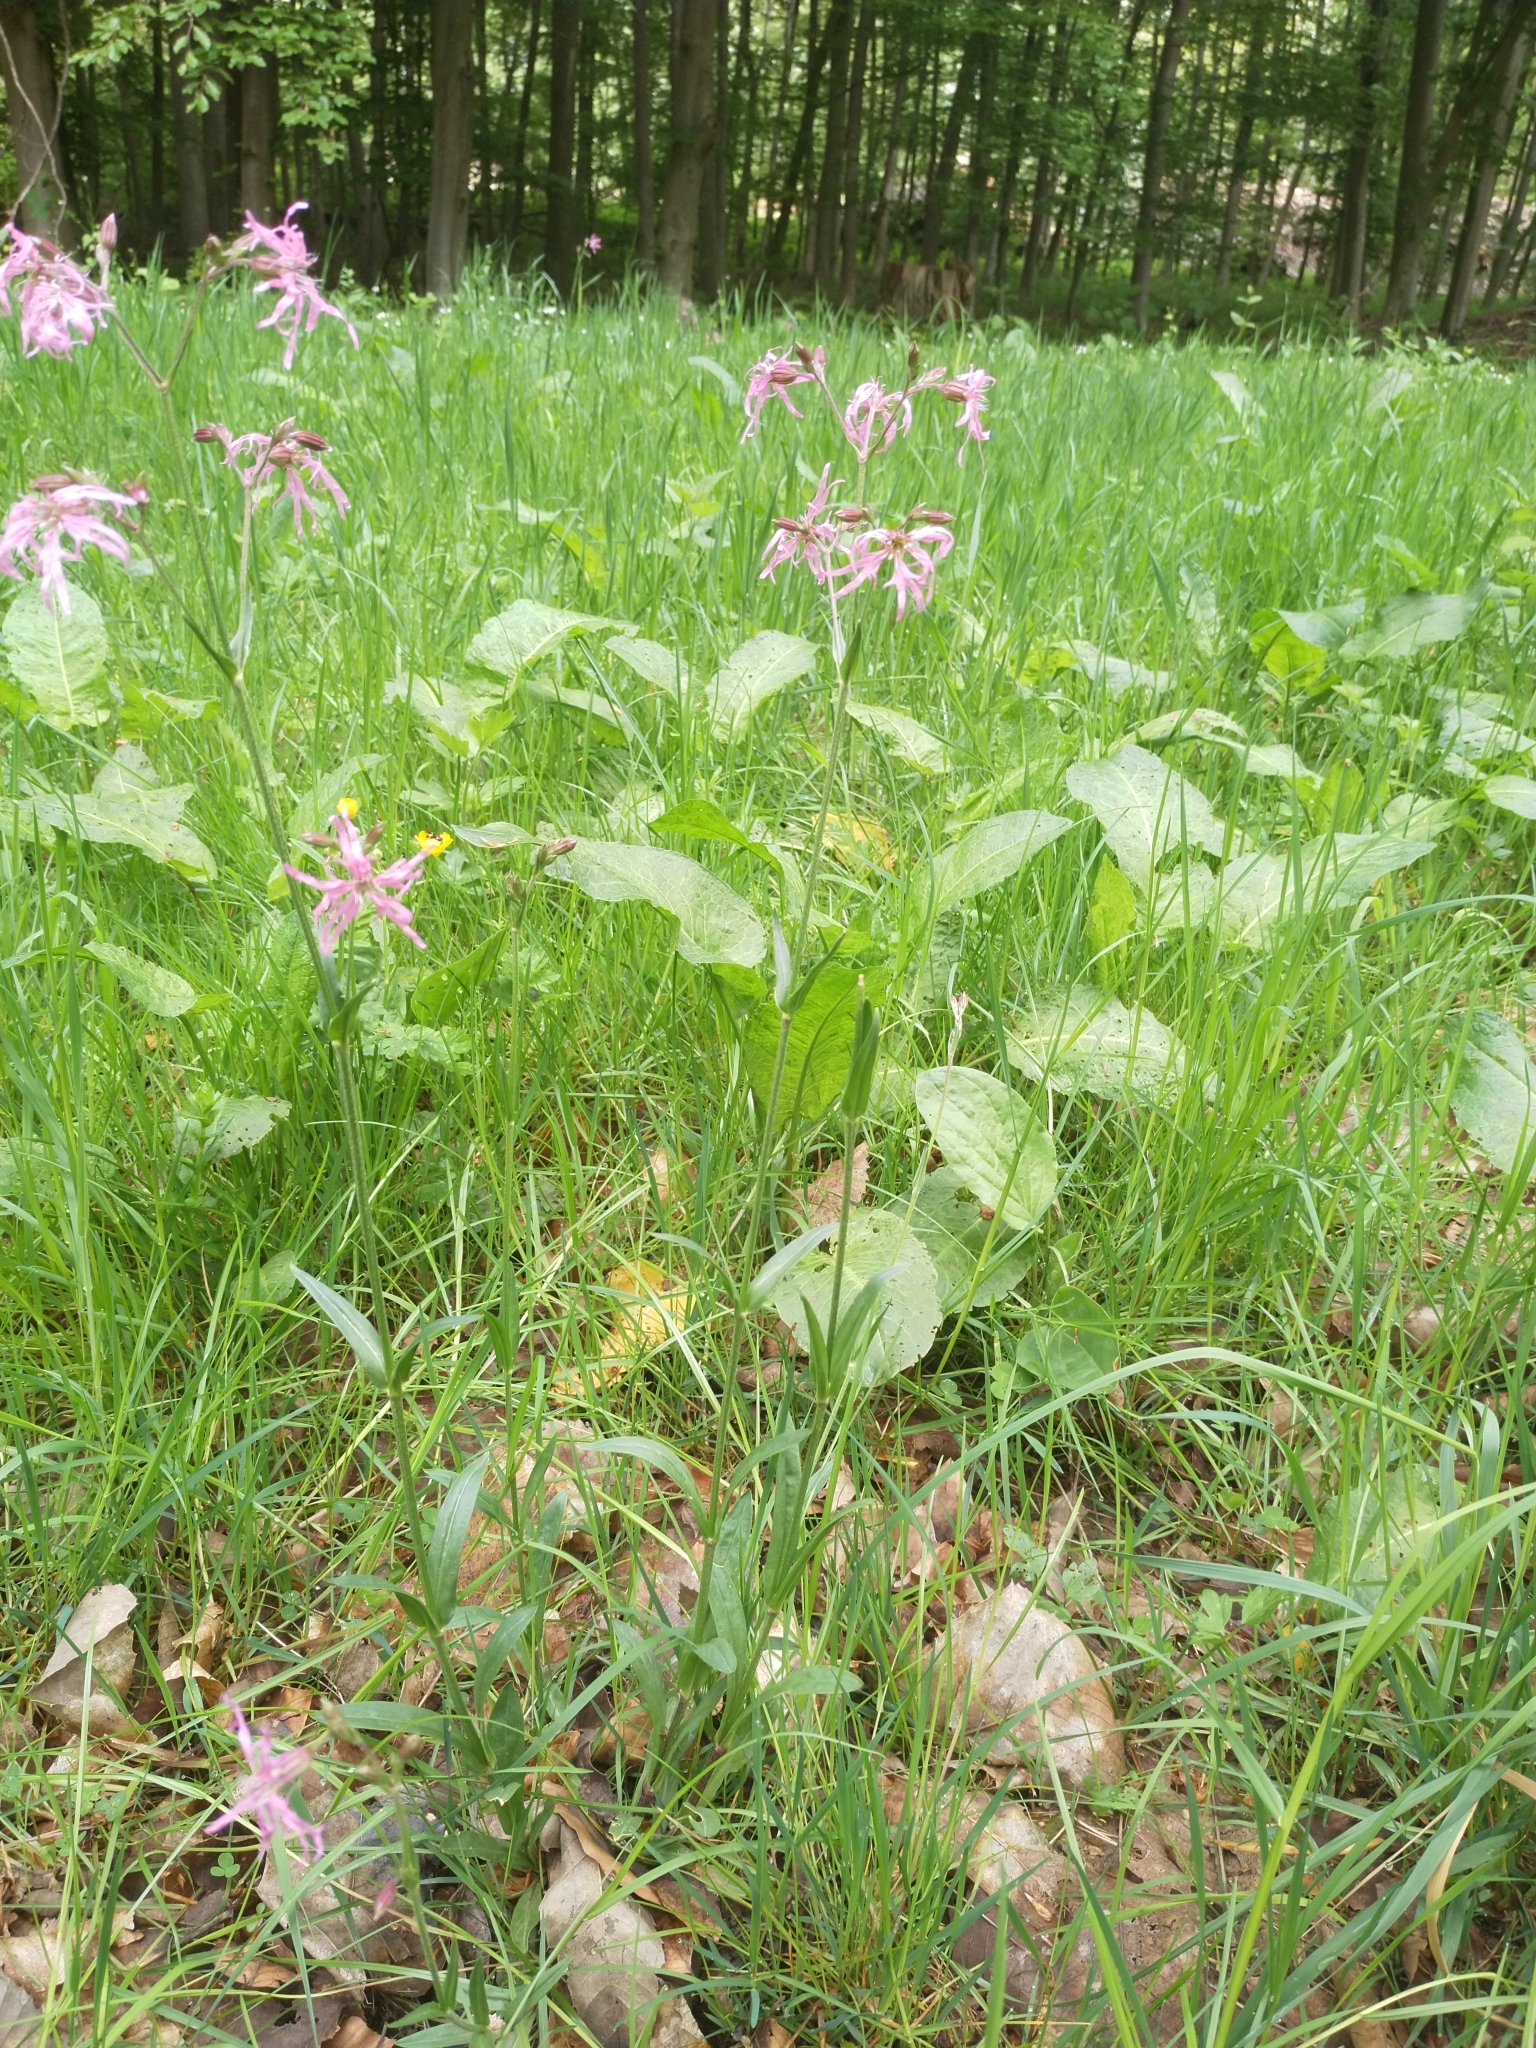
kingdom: Plantae
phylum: Tracheophyta
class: Magnoliopsida
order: Caryophyllales
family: Caryophyllaceae
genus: Silene
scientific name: Silene flos-cuculi
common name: Ragged-robin
